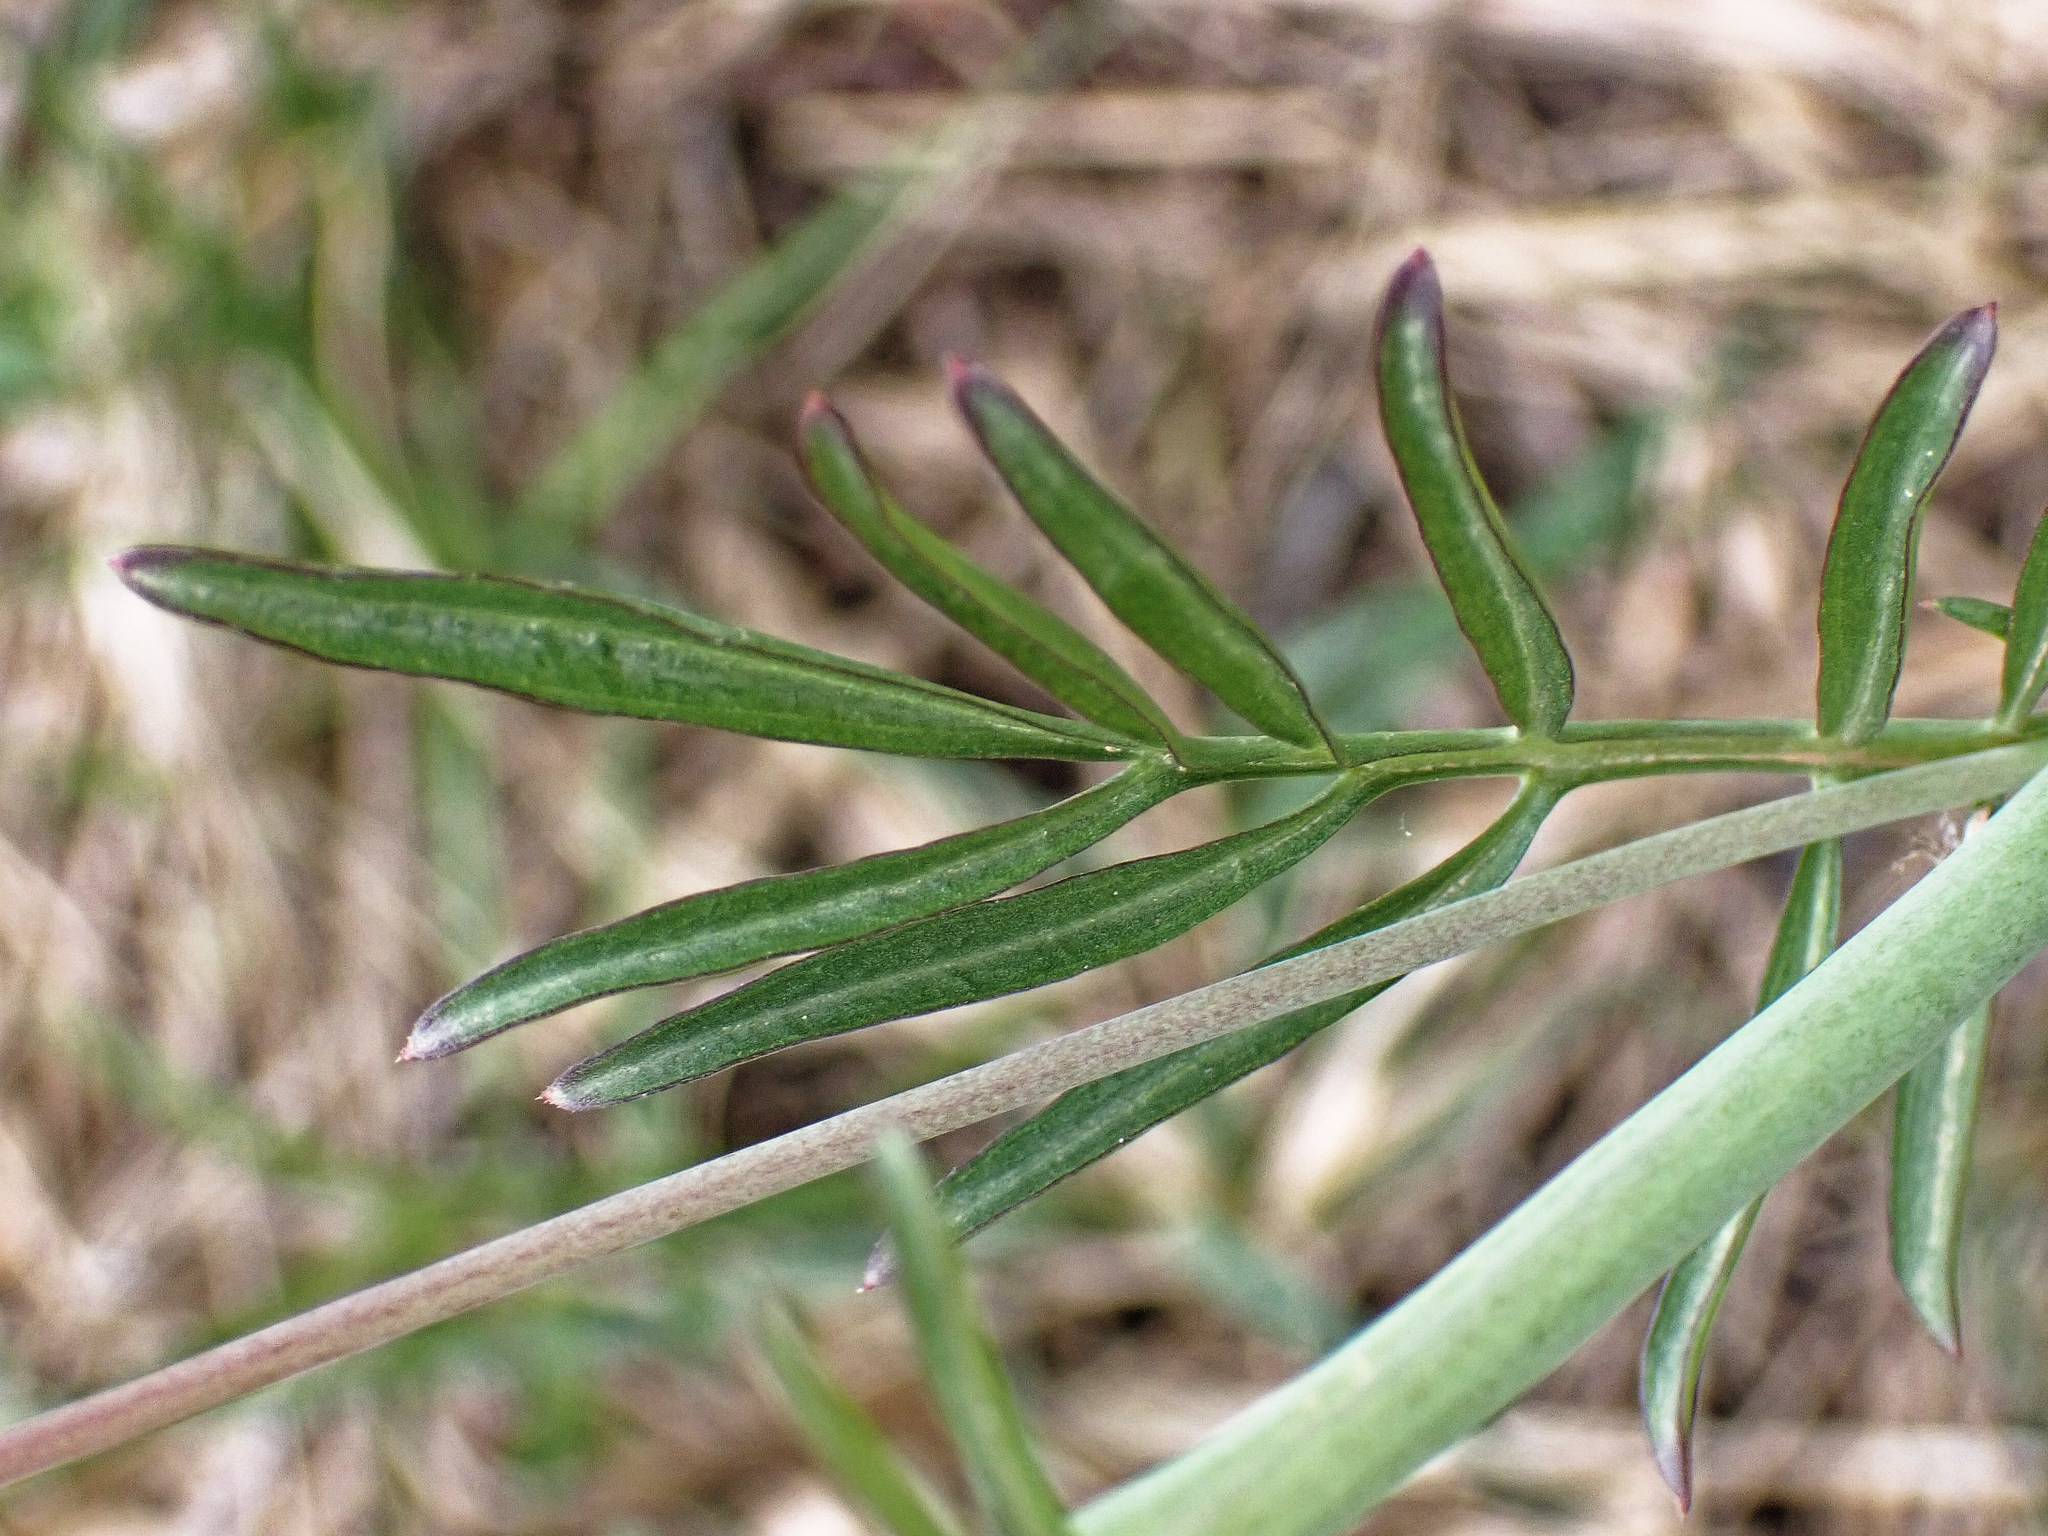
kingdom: Plantae
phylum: Tracheophyta
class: Magnoliopsida
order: Brassicales
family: Brassicaceae
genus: Cardamine
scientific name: Cardamine pratensis
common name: Cuckoo flower
